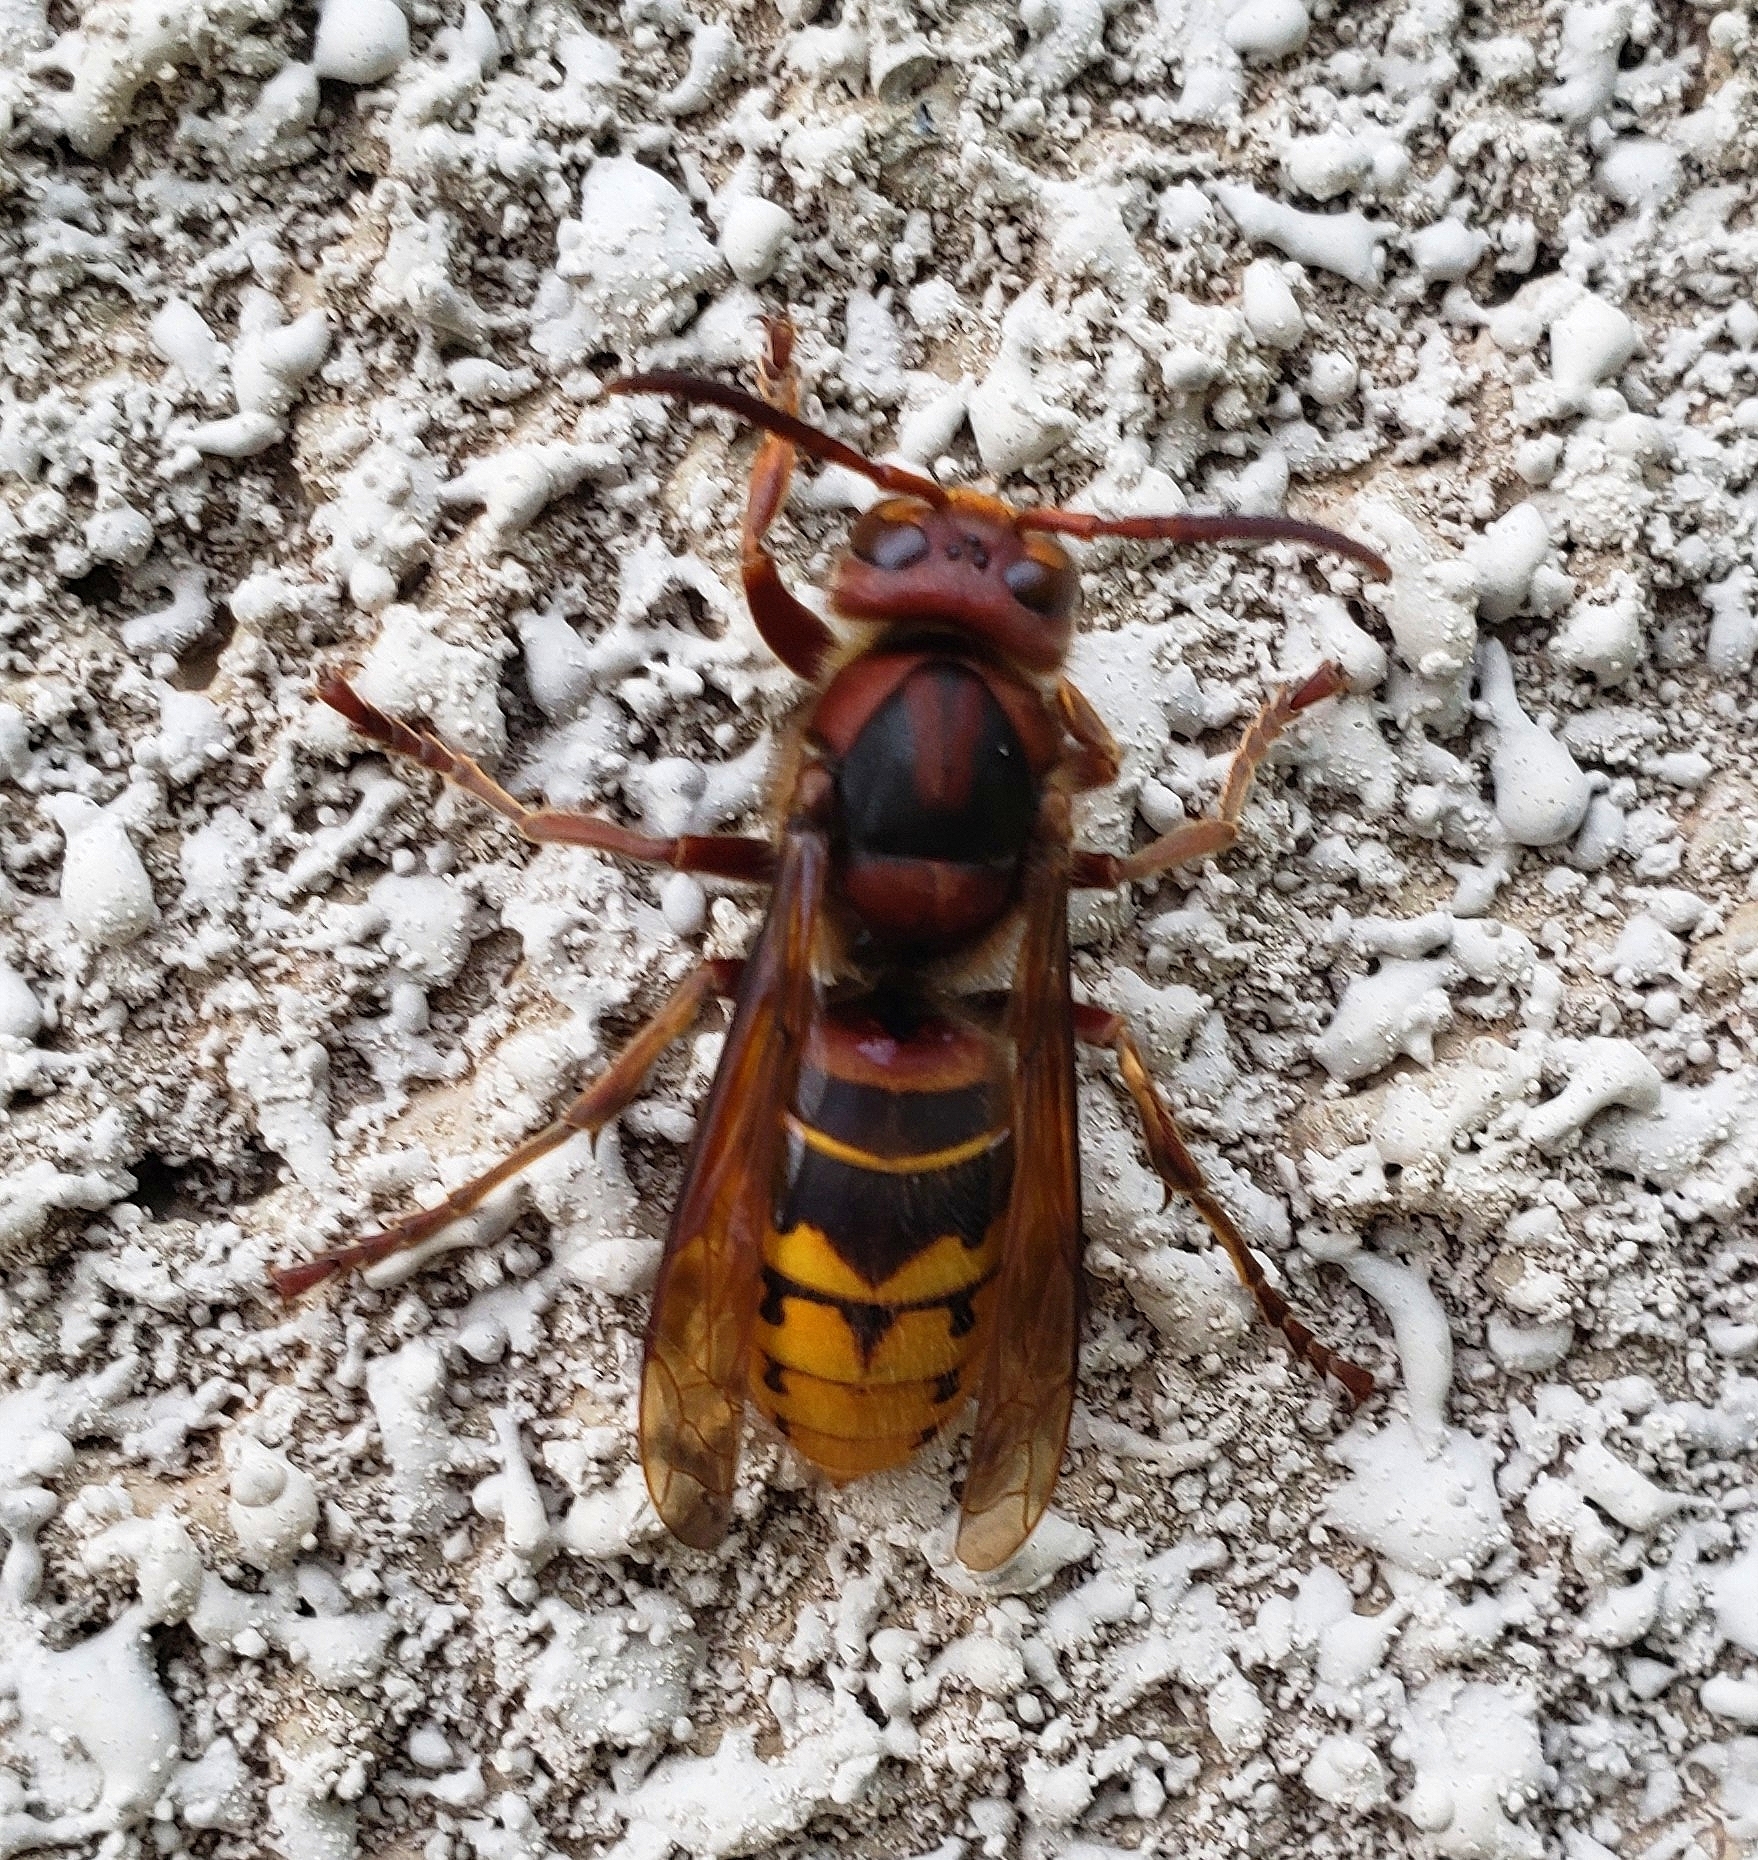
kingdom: Animalia
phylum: Arthropoda
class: Insecta
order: Hymenoptera
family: Vespidae
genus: Vespa
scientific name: Vespa crabro
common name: Hornet
